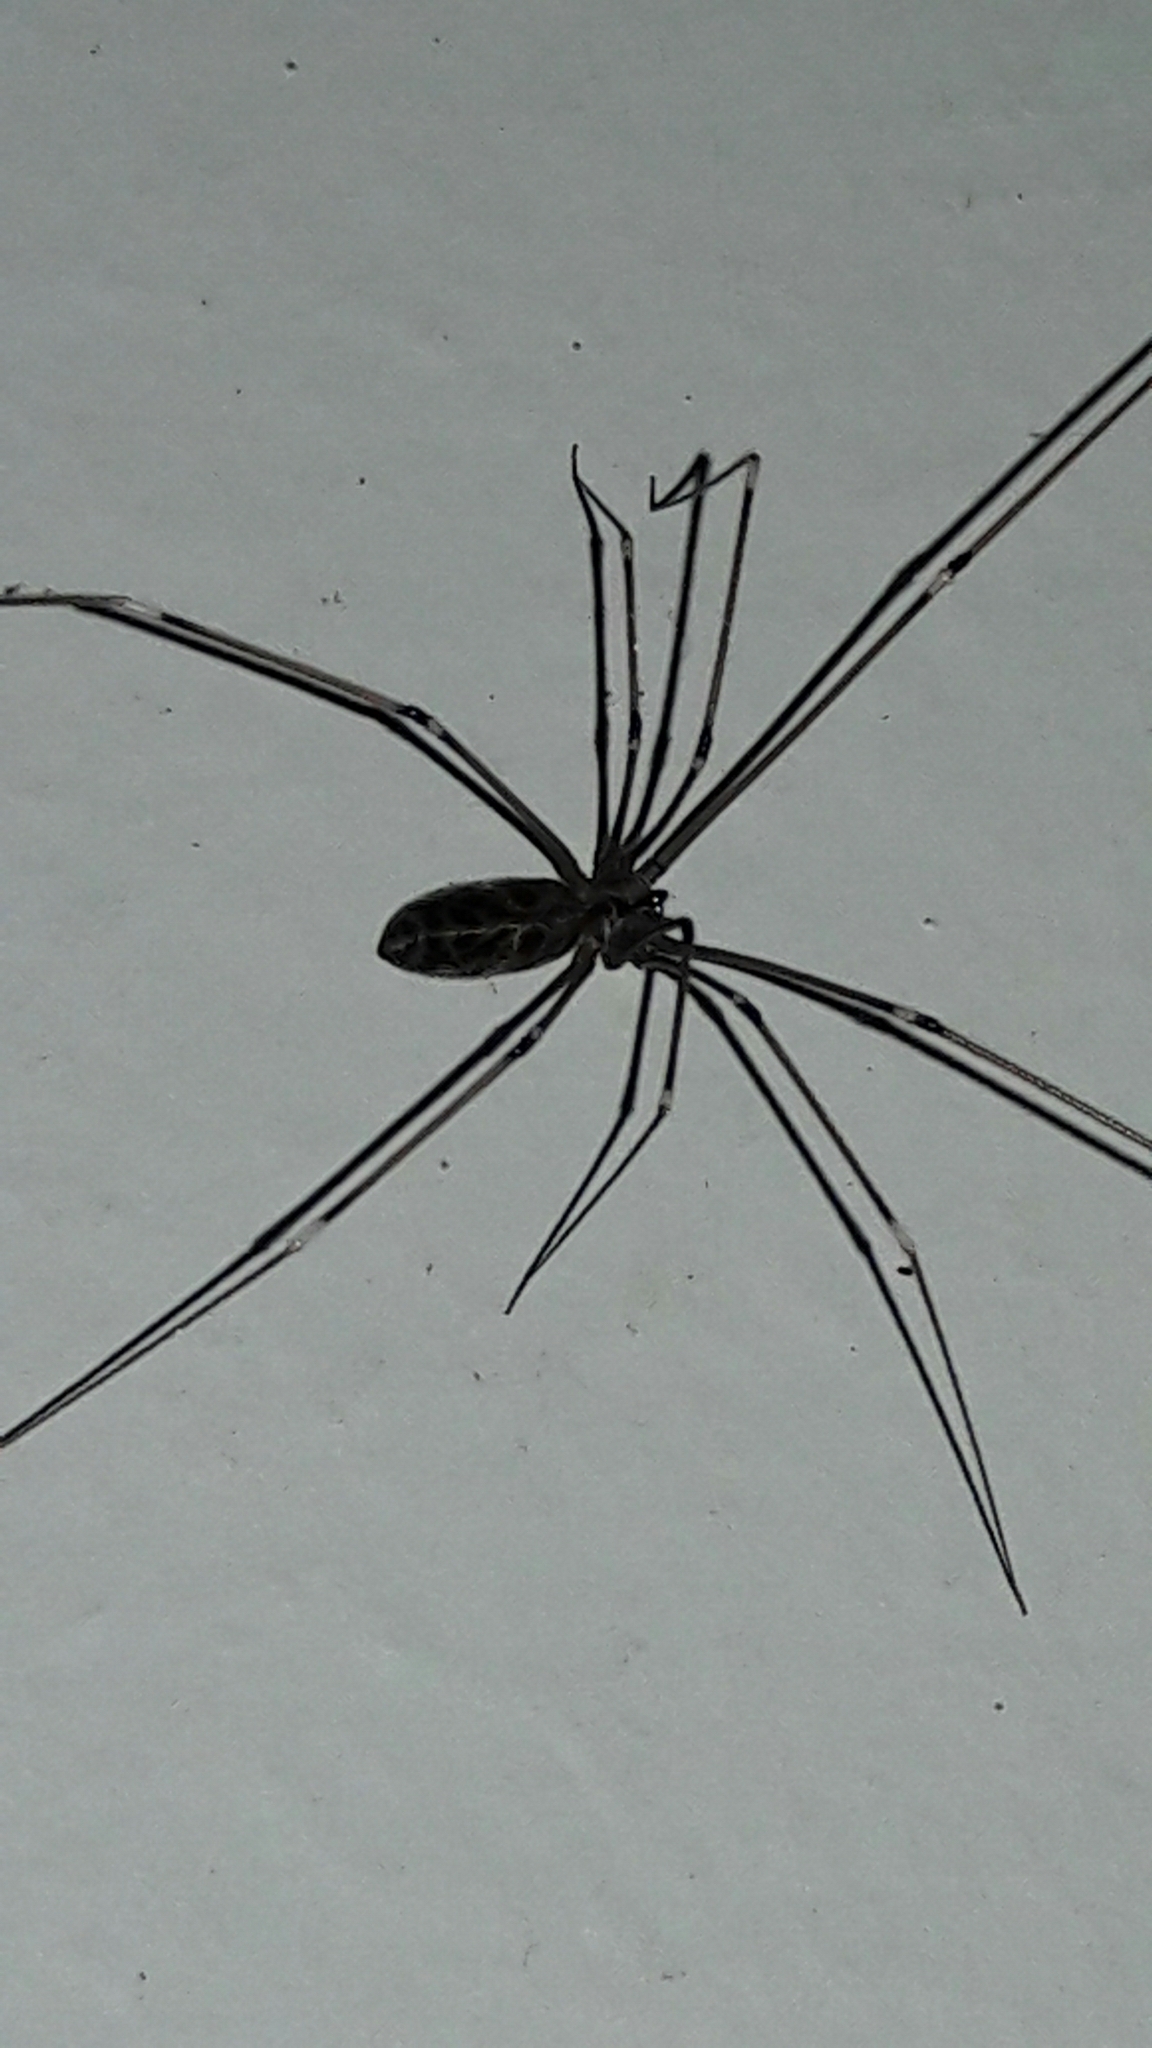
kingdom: Animalia
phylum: Arthropoda
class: Arachnida
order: Araneae
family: Pholcidae
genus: Smeringopus
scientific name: Smeringopus pallidus
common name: Cellar spider
